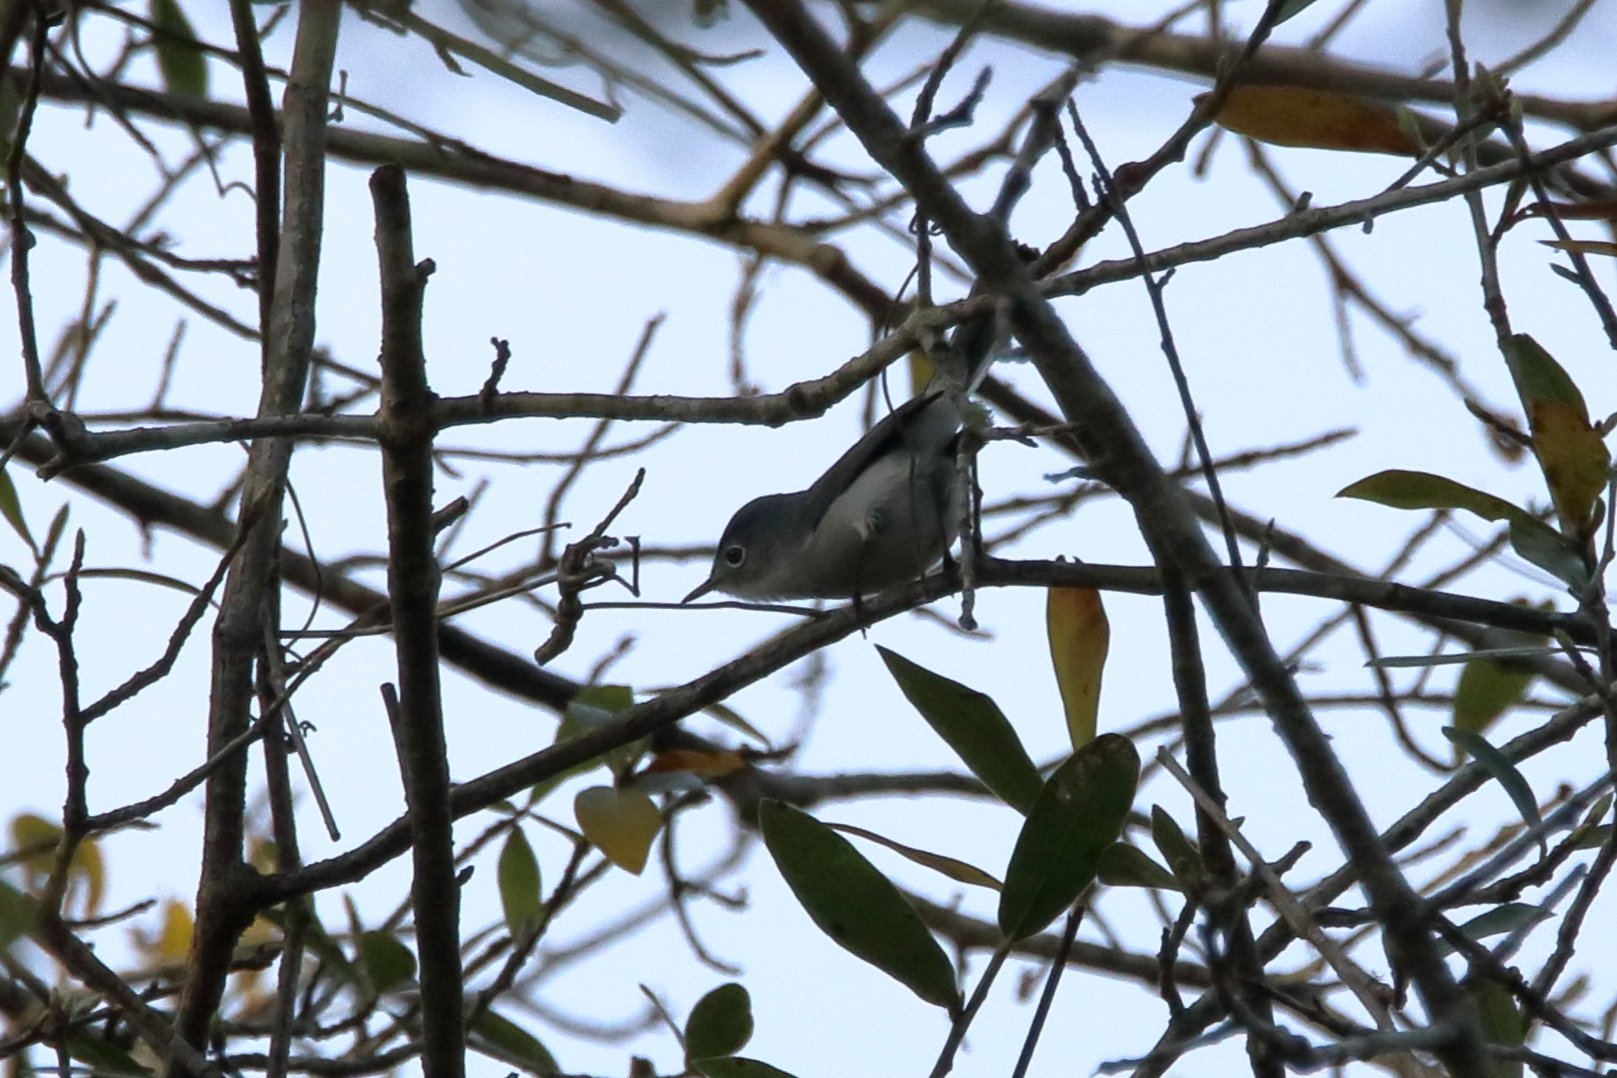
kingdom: Animalia
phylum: Chordata
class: Aves
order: Passeriformes
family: Polioptilidae
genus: Polioptila
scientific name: Polioptila caerulea
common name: Blue-gray gnatcatcher
